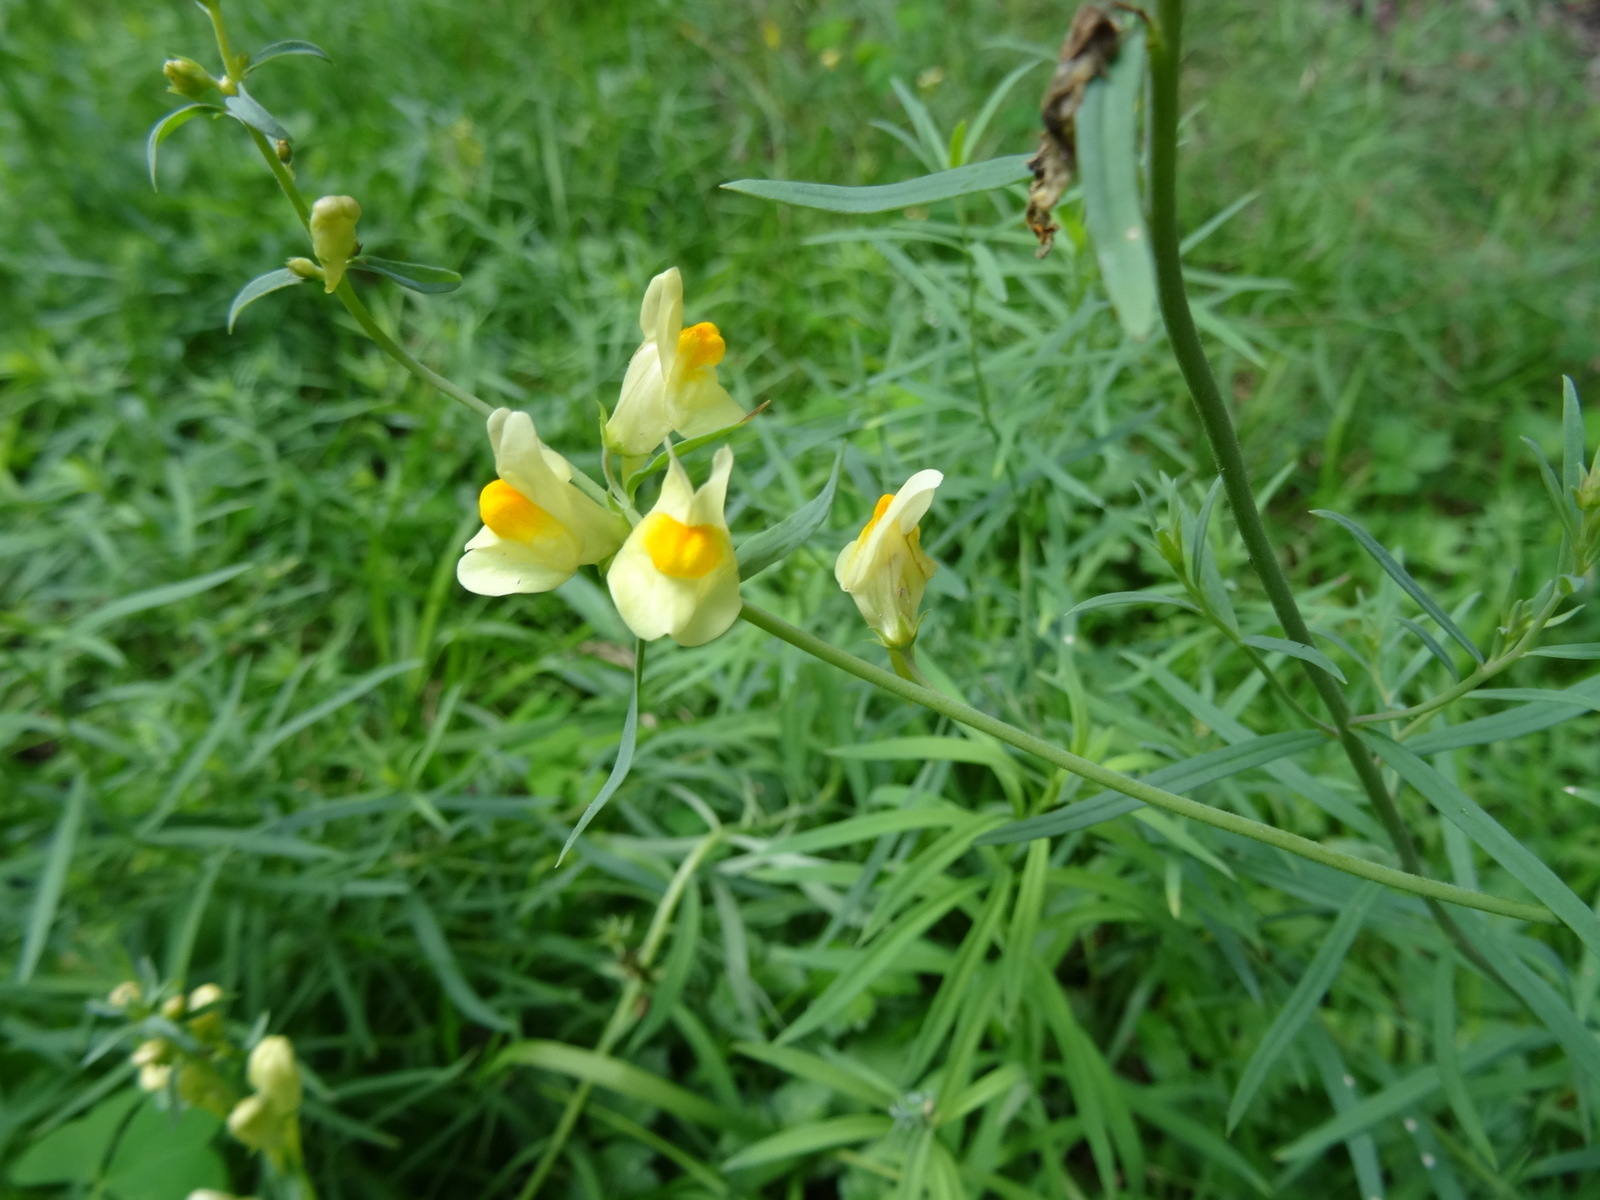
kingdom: Plantae
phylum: Tracheophyta
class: Magnoliopsida
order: Lamiales
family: Plantaginaceae
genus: Linaria
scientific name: Linaria vulgaris
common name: Butter and eggs
